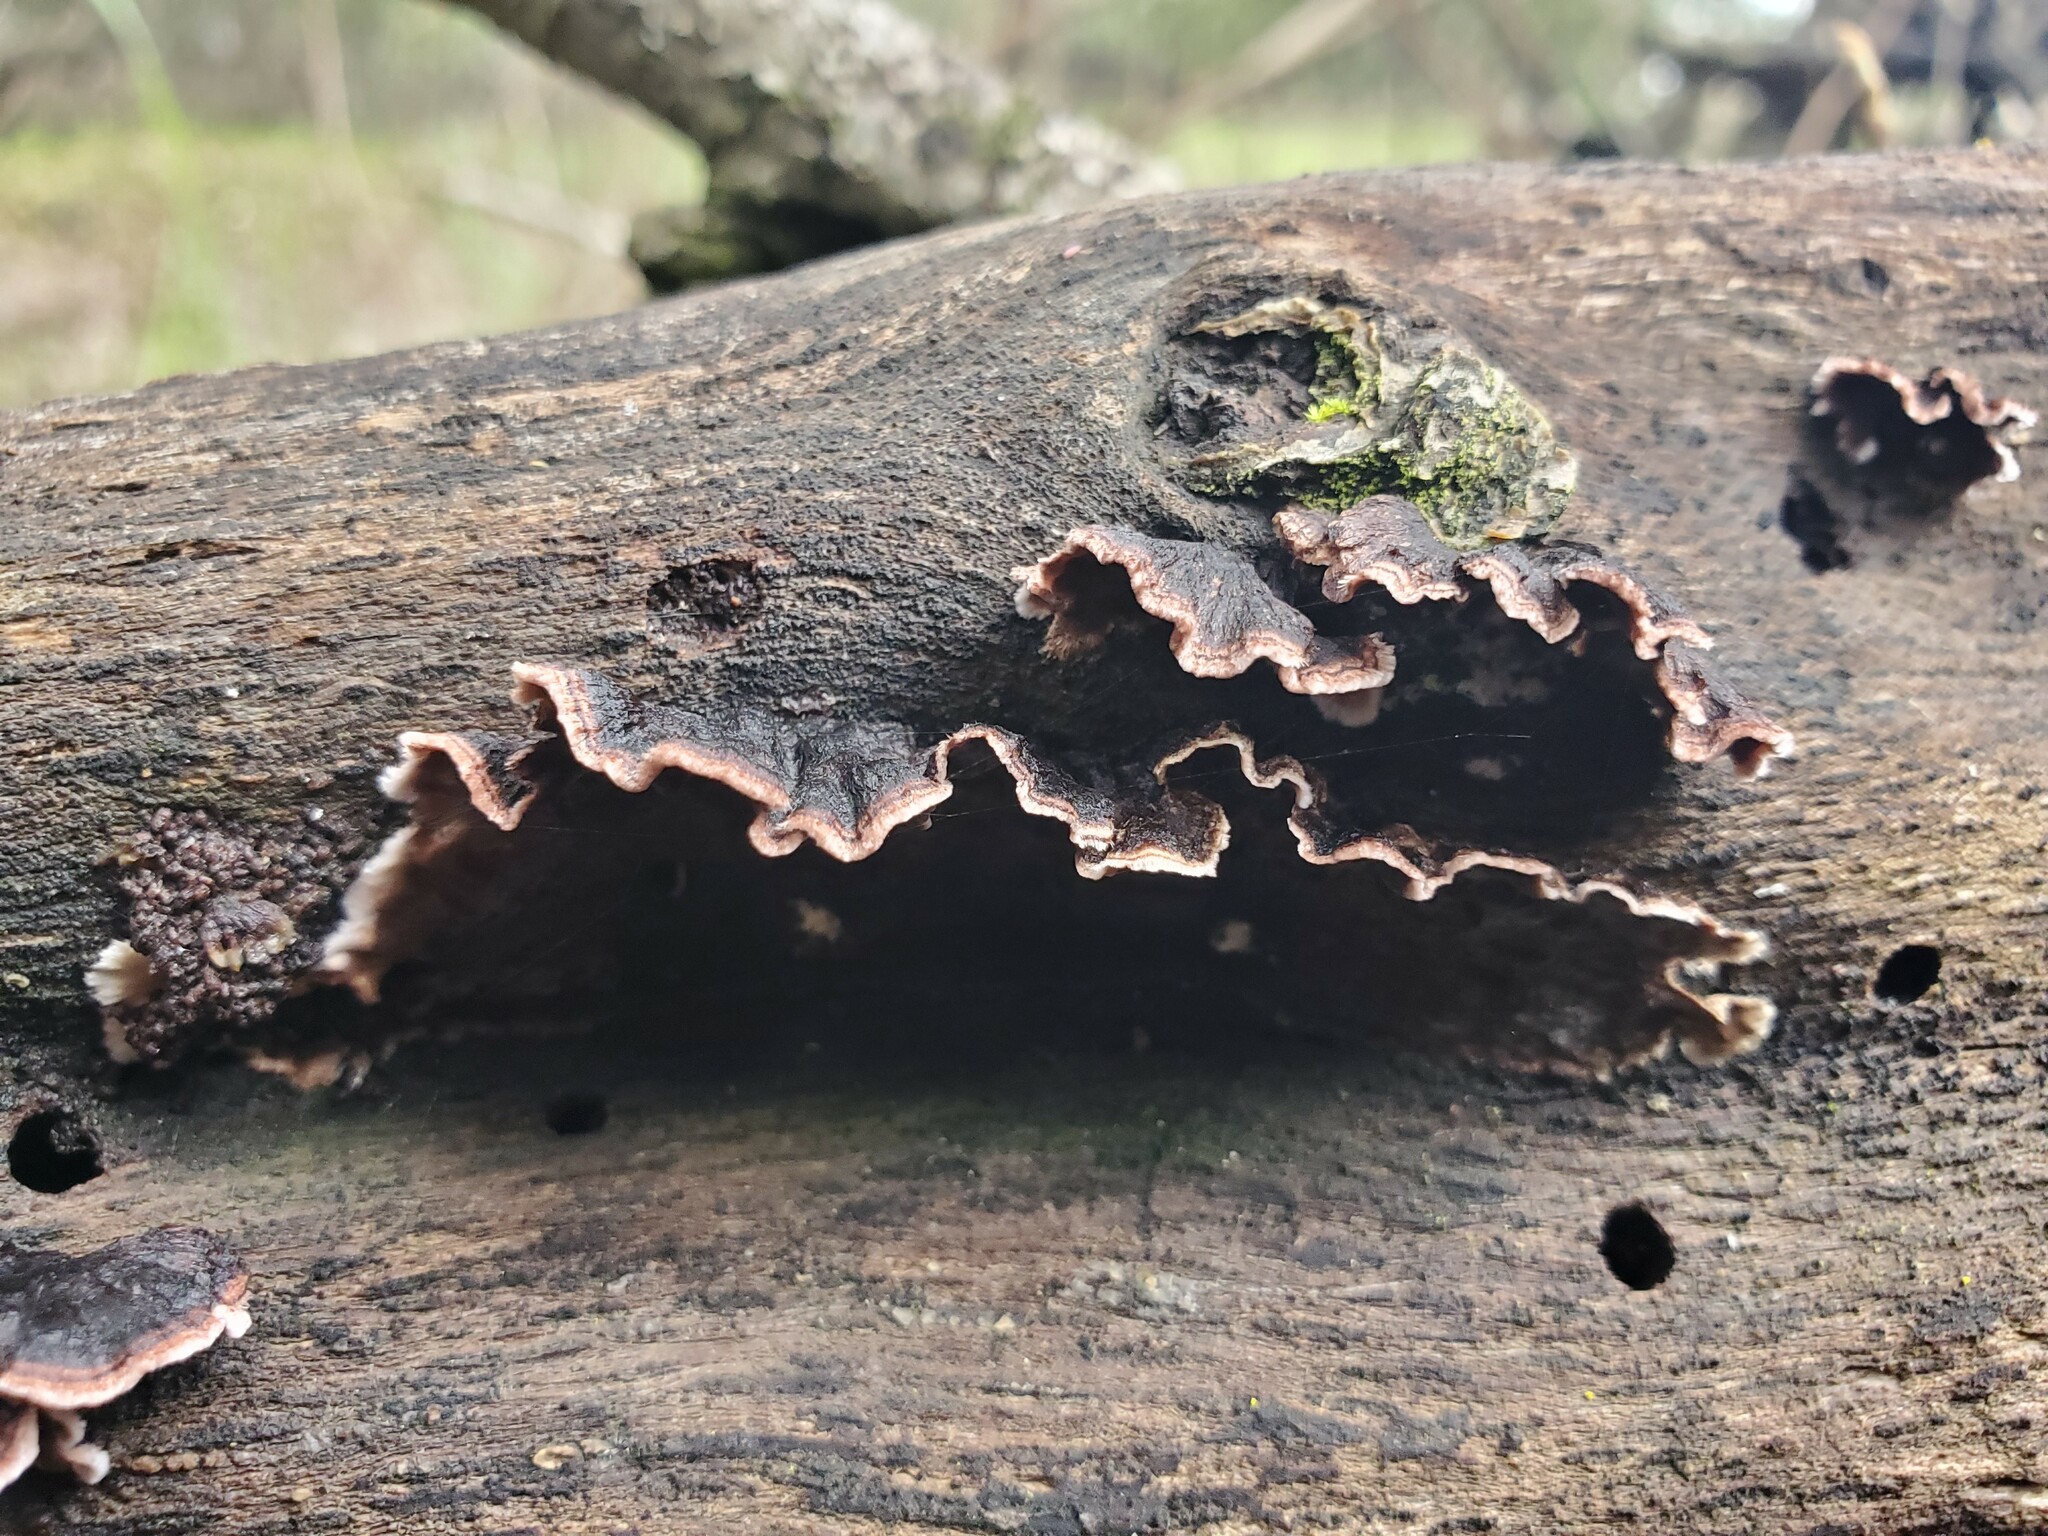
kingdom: Fungi
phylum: Basidiomycota
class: Agaricomycetes
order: Russulales
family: Peniophoraceae
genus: Peniophora
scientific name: Peniophora albobadia
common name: Giraffe spots
